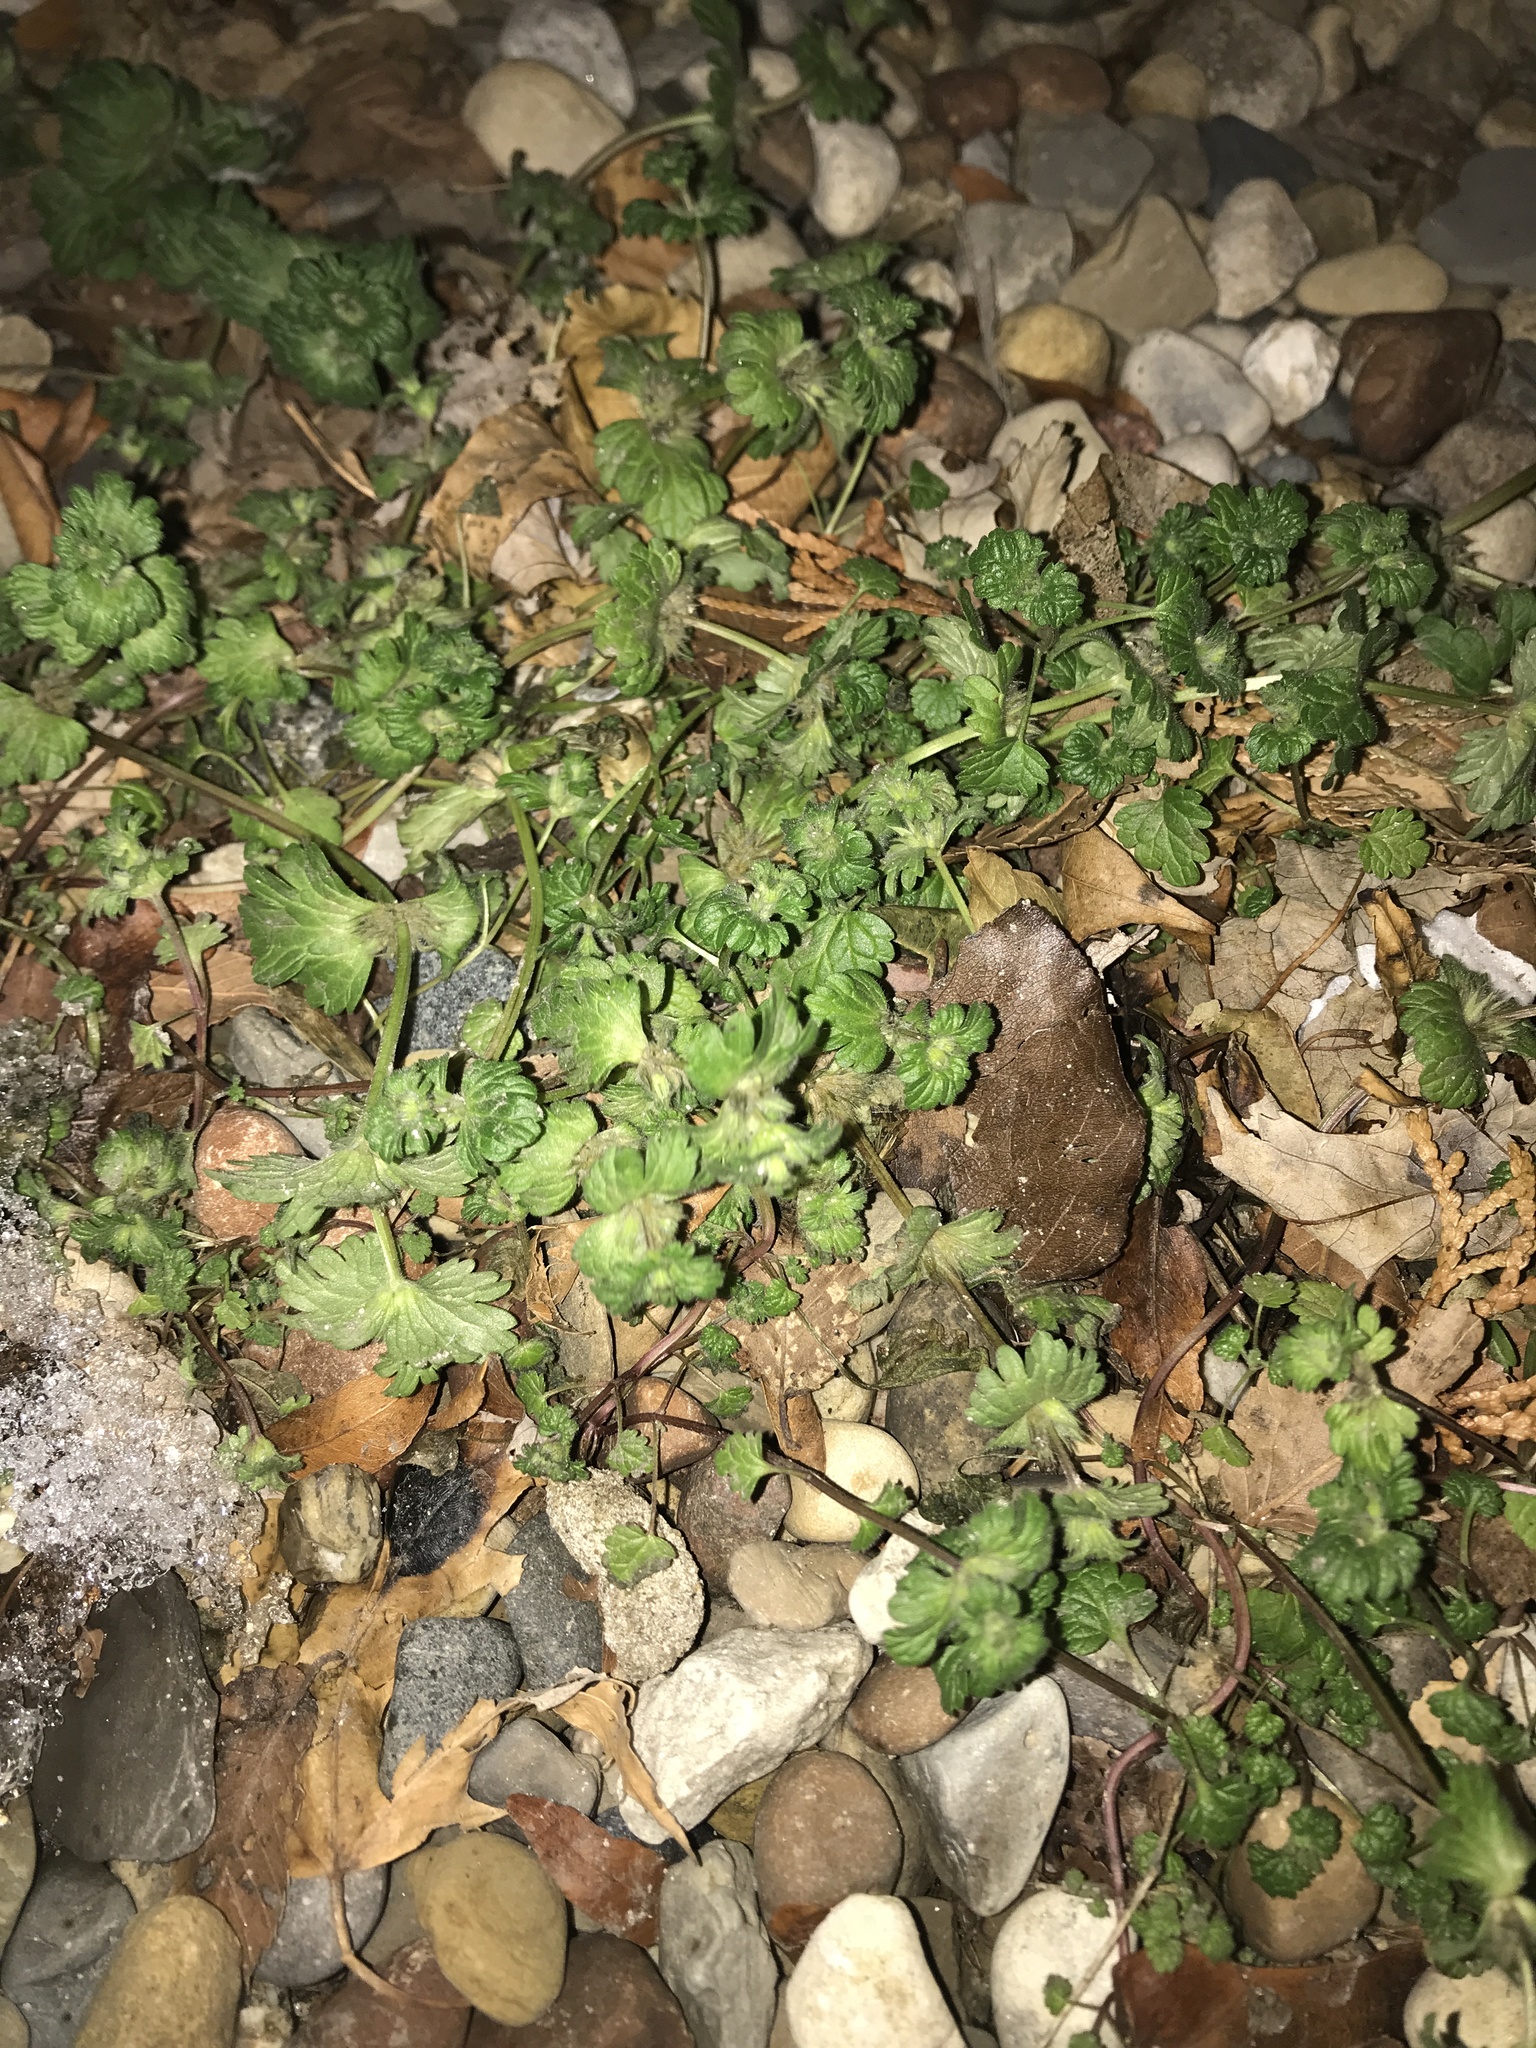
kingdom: Plantae
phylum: Tracheophyta
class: Magnoliopsida
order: Lamiales
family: Lamiaceae
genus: Lamium
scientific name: Lamium amplexicaule
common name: Henbit dead-nettle
